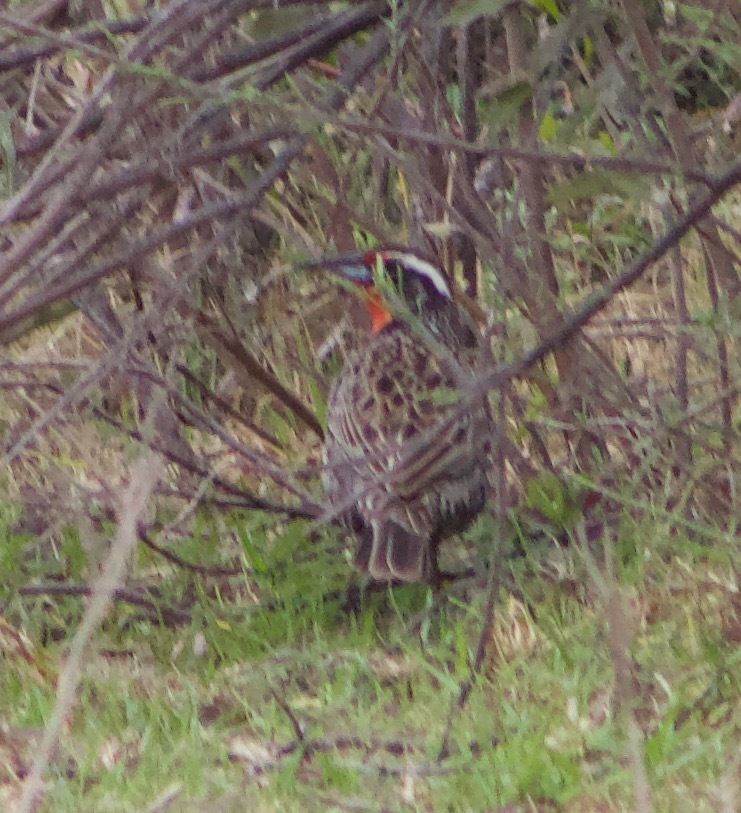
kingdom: Animalia
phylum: Chordata
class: Aves
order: Passeriformes
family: Icteridae
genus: Sturnella
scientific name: Sturnella loyca
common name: Long-tailed meadowlark
